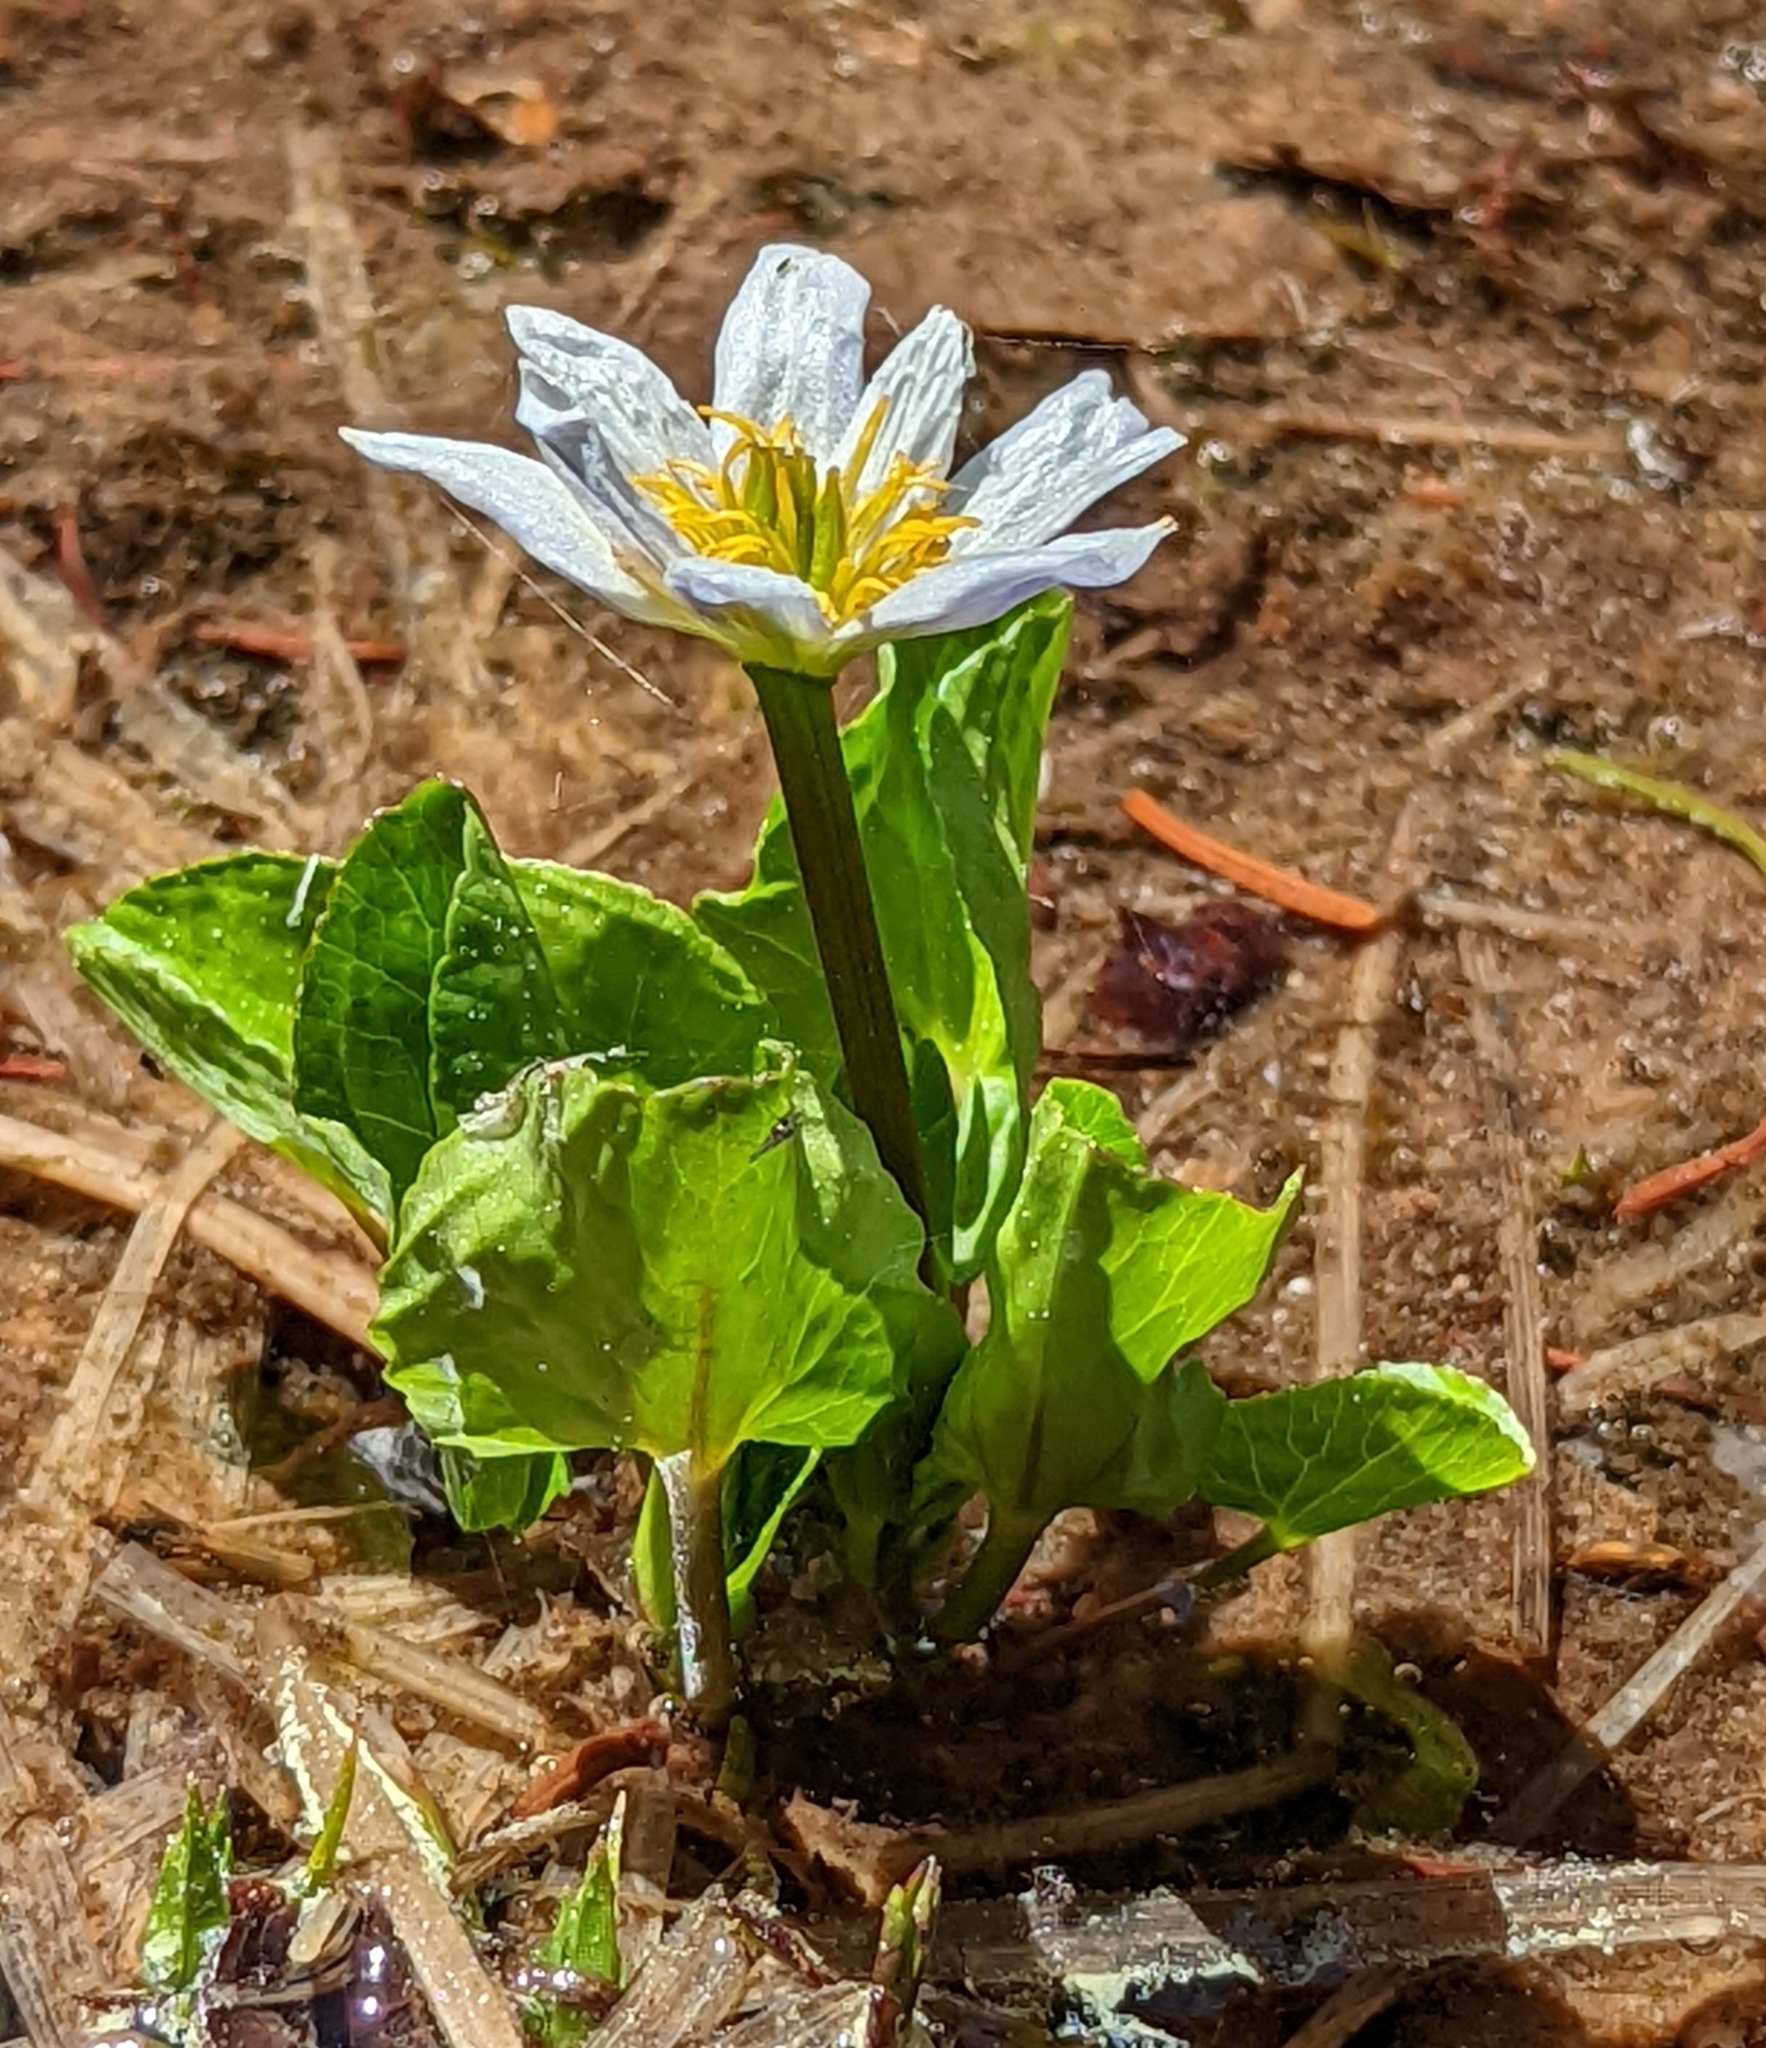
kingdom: Plantae
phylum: Tracheophyta
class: Magnoliopsida
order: Ranunculales
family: Ranunculaceae
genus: Caltha
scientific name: Caltha leptosepala
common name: Elkslip
